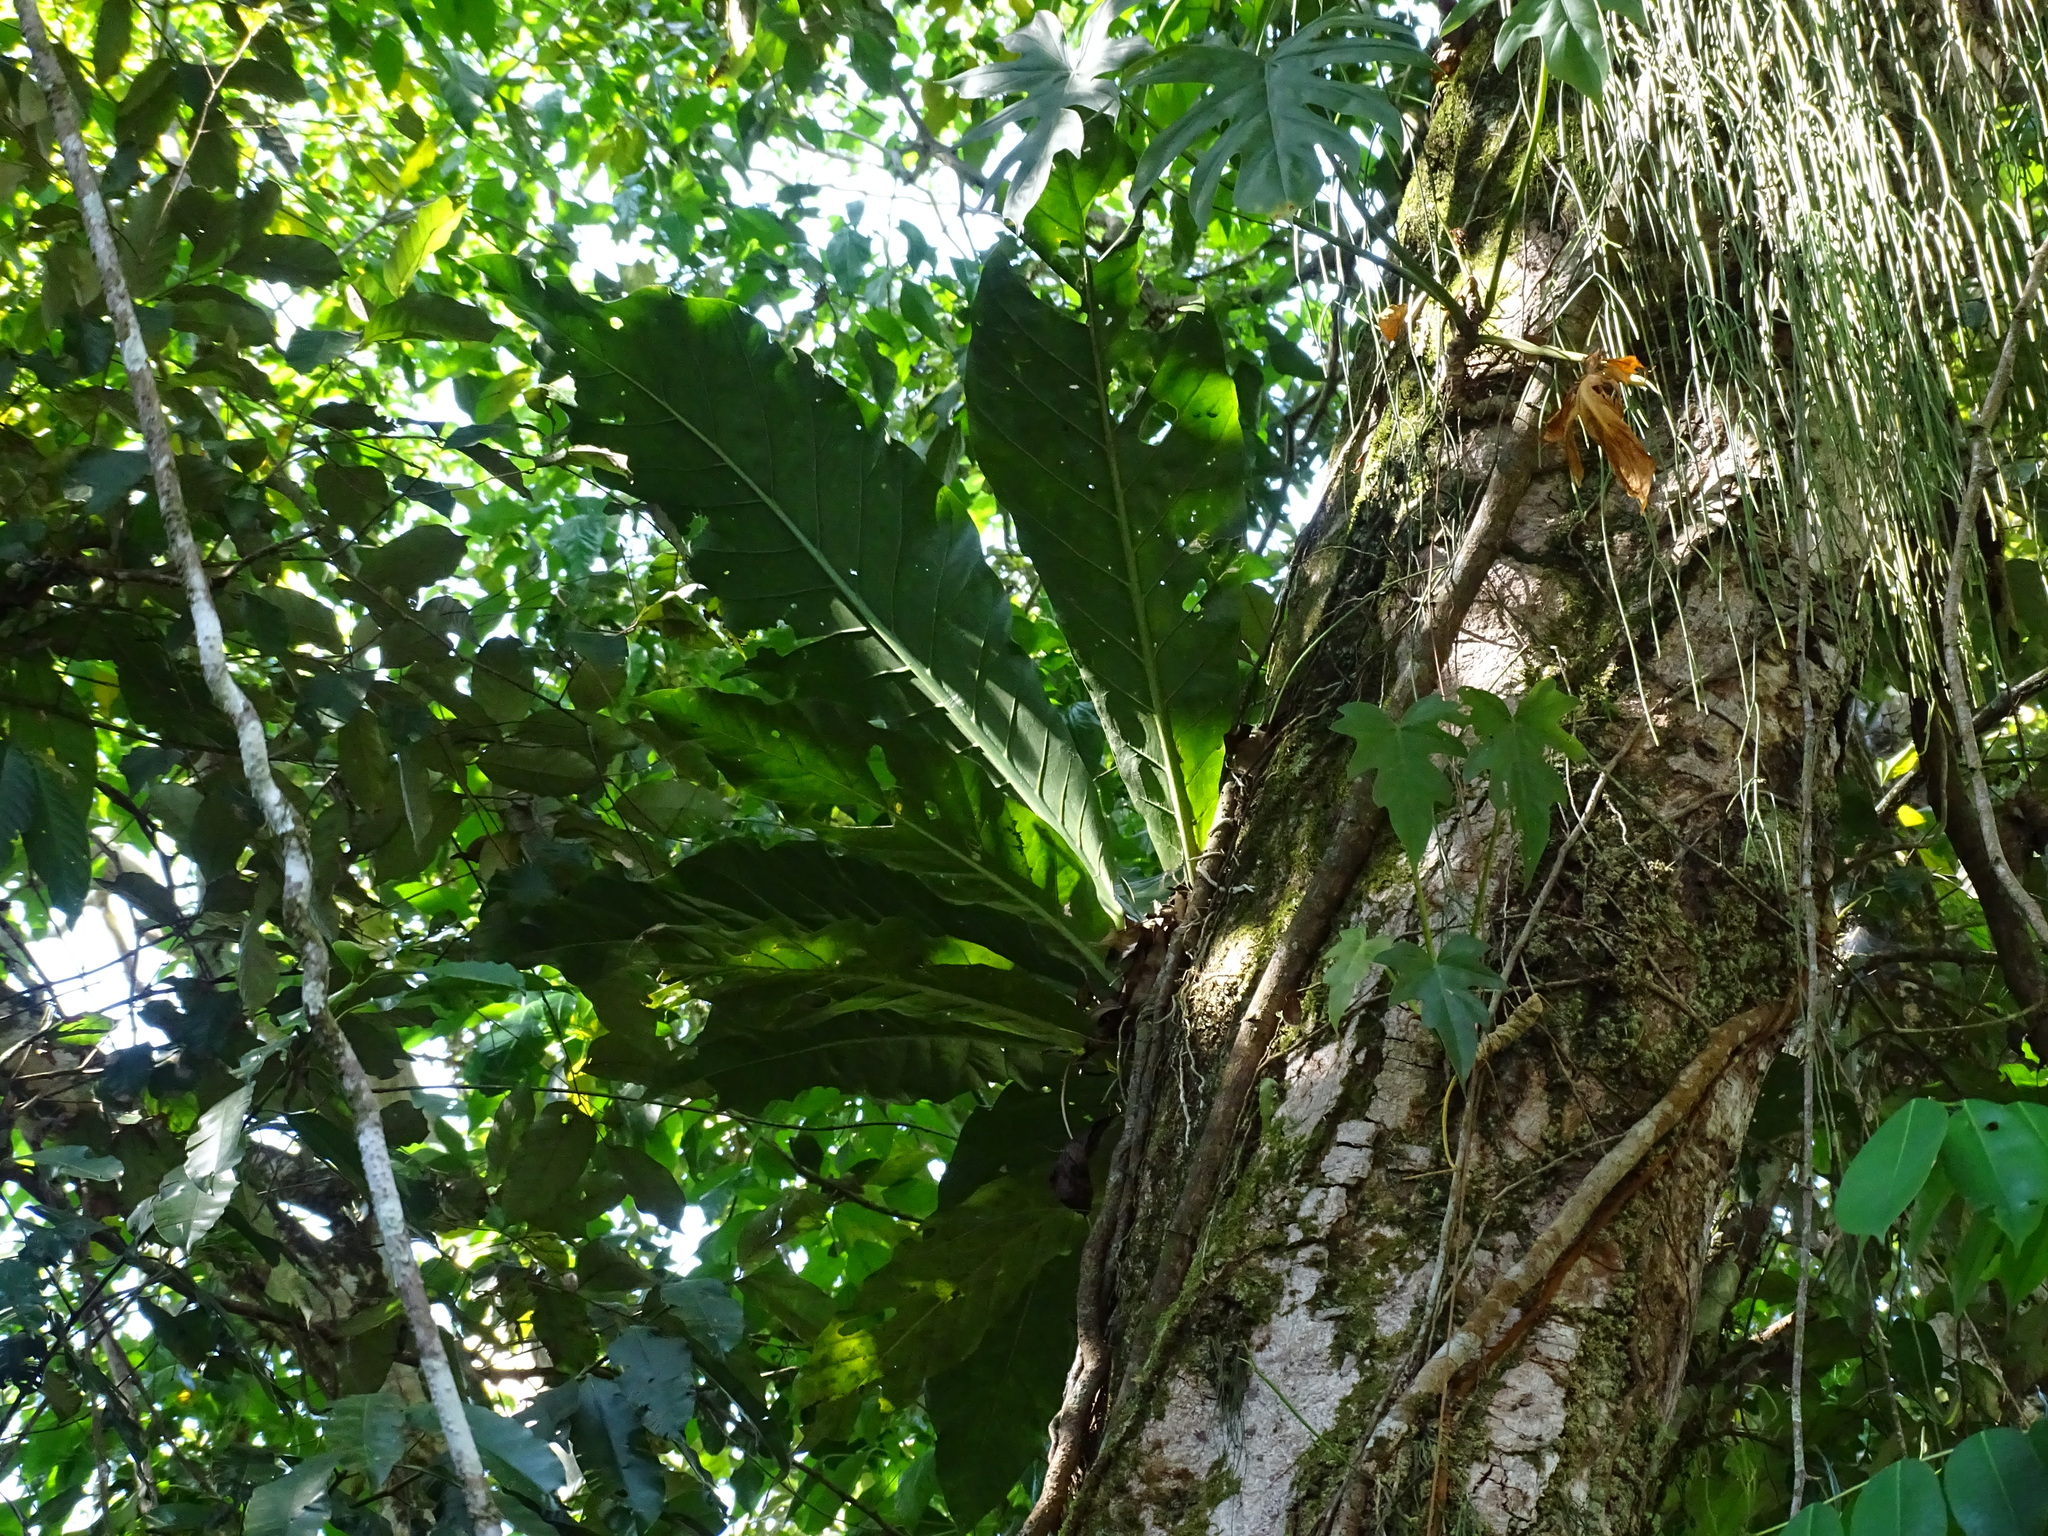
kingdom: Plantae
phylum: Tracheophyta
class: Liliopsida
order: Alismatales
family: Araceae
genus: Anthurium
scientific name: Anthurium salvinii
